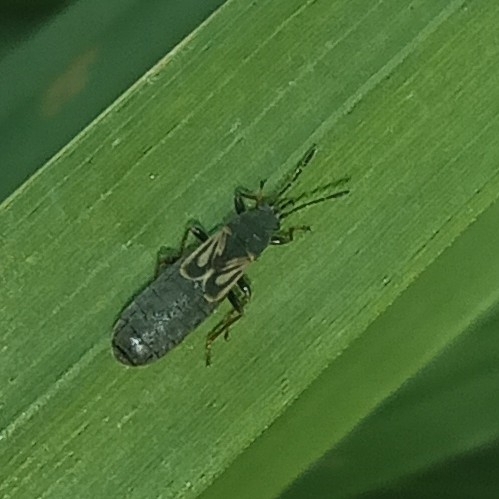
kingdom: Animalia
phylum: Arthropoda
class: Insecta
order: Hemiptera
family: Blissidae
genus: Ischnodemus
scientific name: Ischnodemus sabuleti
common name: European cinchbug
